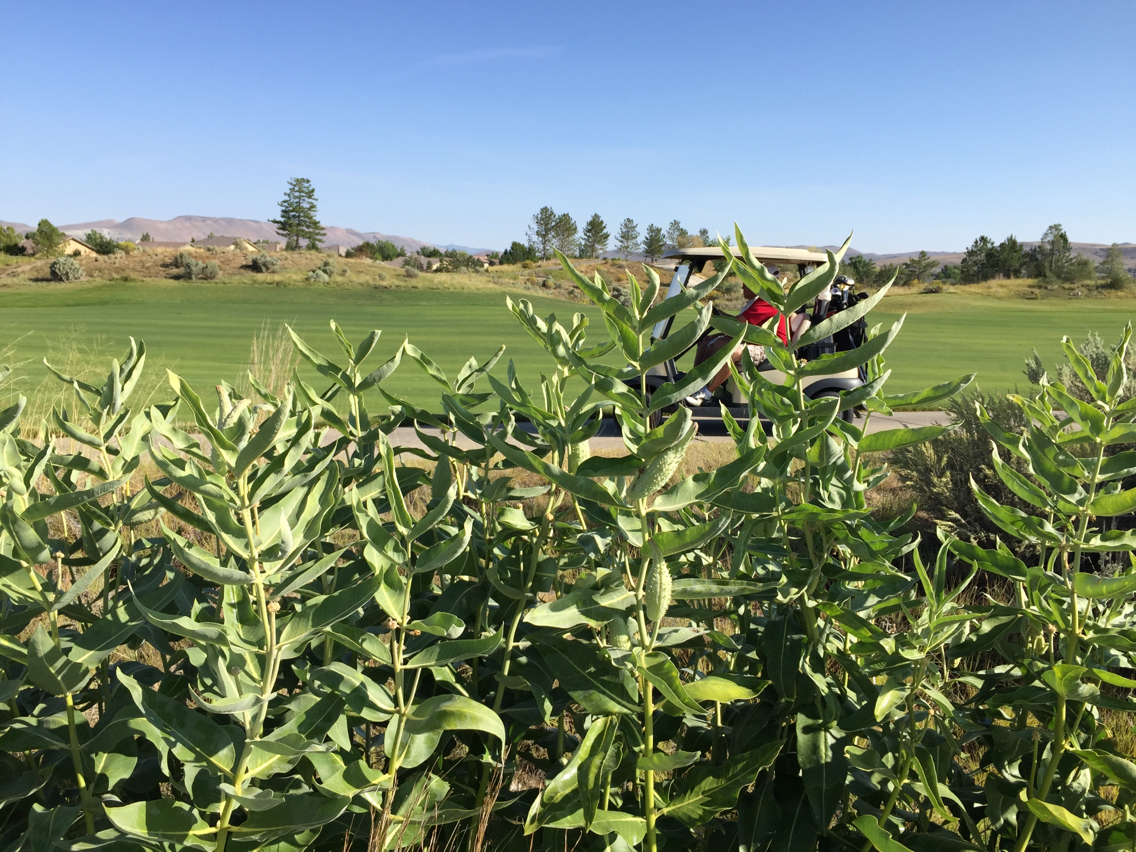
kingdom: Plantae
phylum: Tracheophyta
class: Magnoliopsida
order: Gentianales
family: Apocynaceae
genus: Asclepias
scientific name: Asclepias speciosa
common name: Showy milkweed
